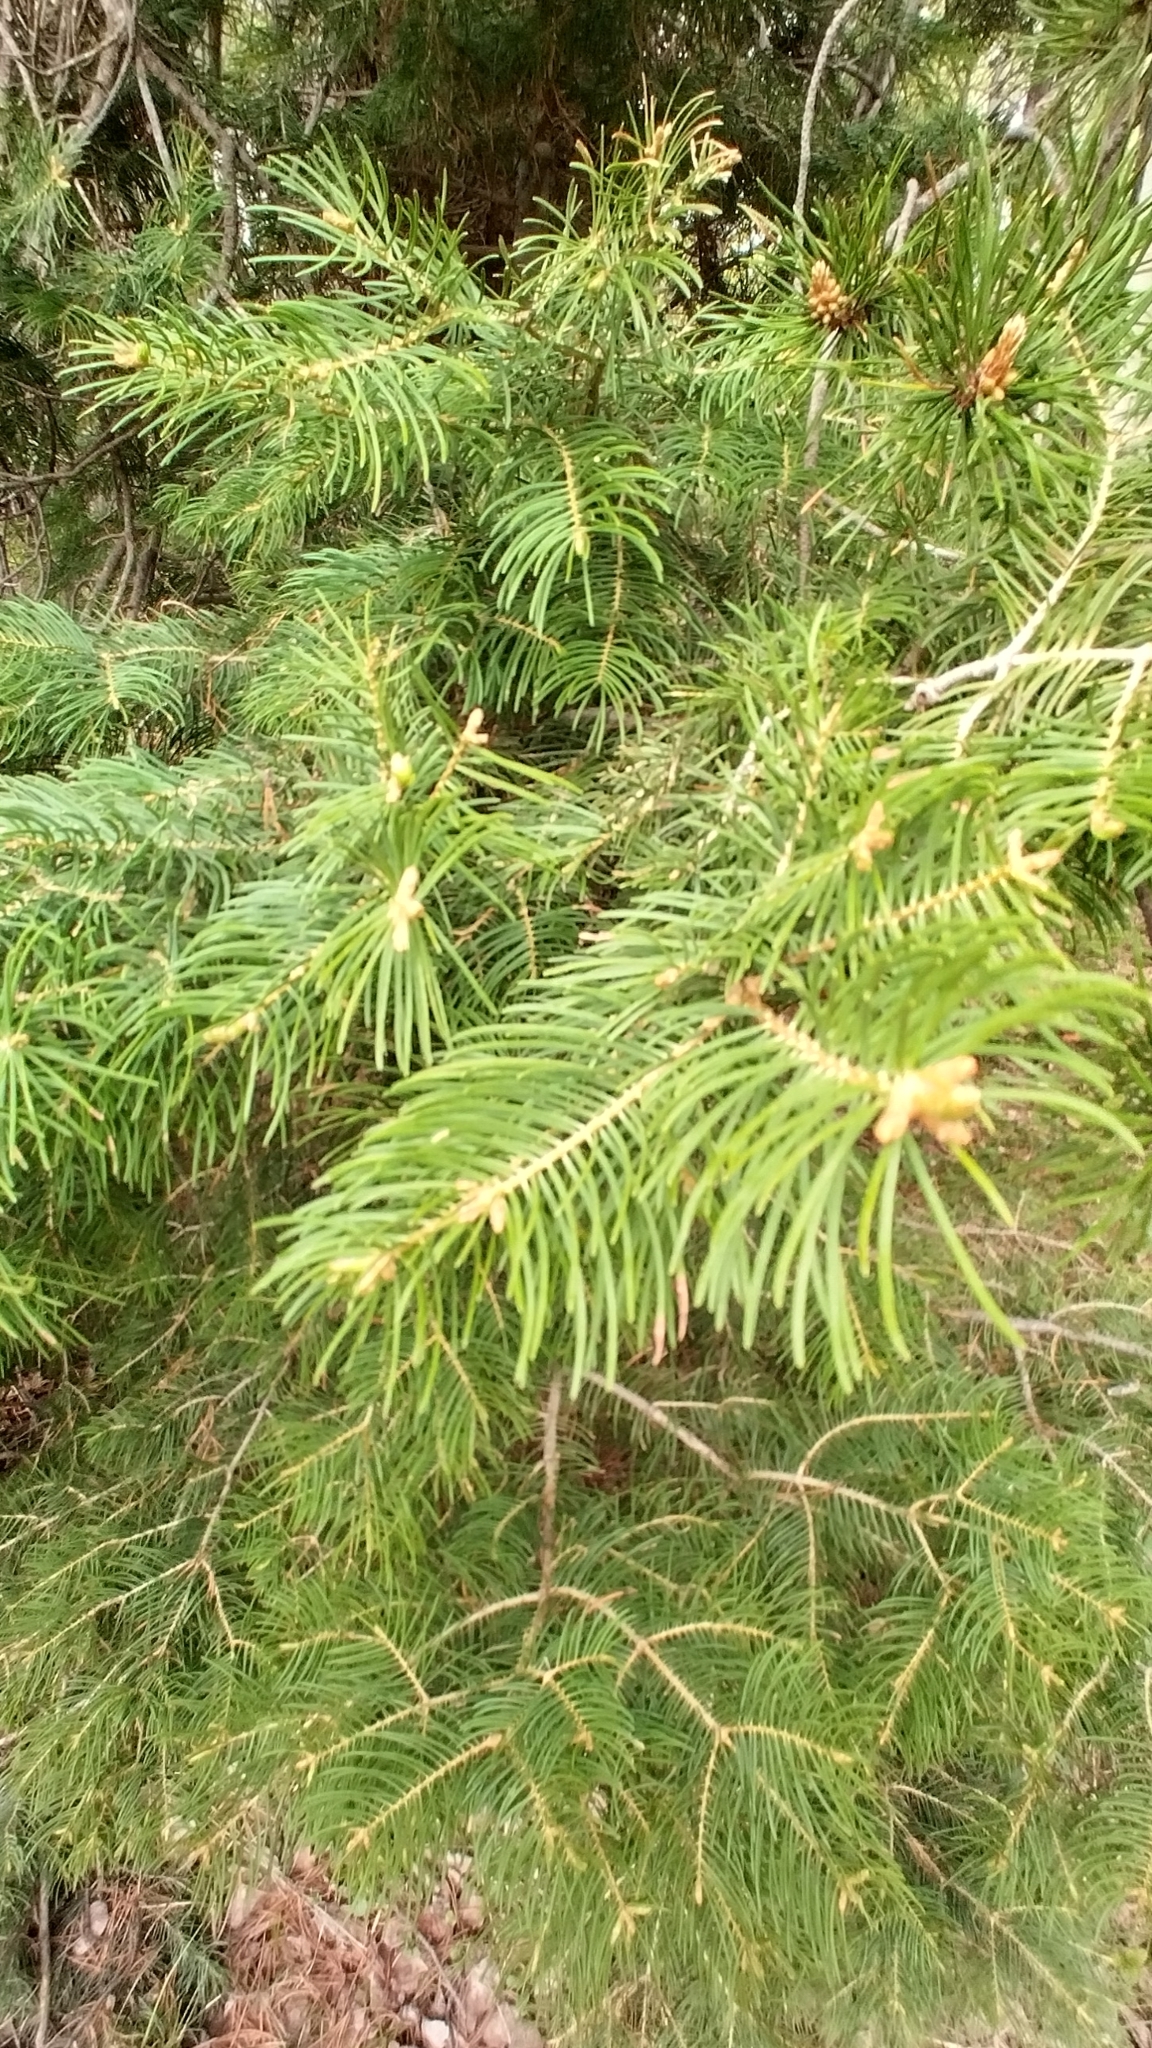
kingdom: Plantae
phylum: Tracheophyta
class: Pinopsida
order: Pinales
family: Pinaceae
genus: Abies
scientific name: Abies concolor
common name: Colorado fir
